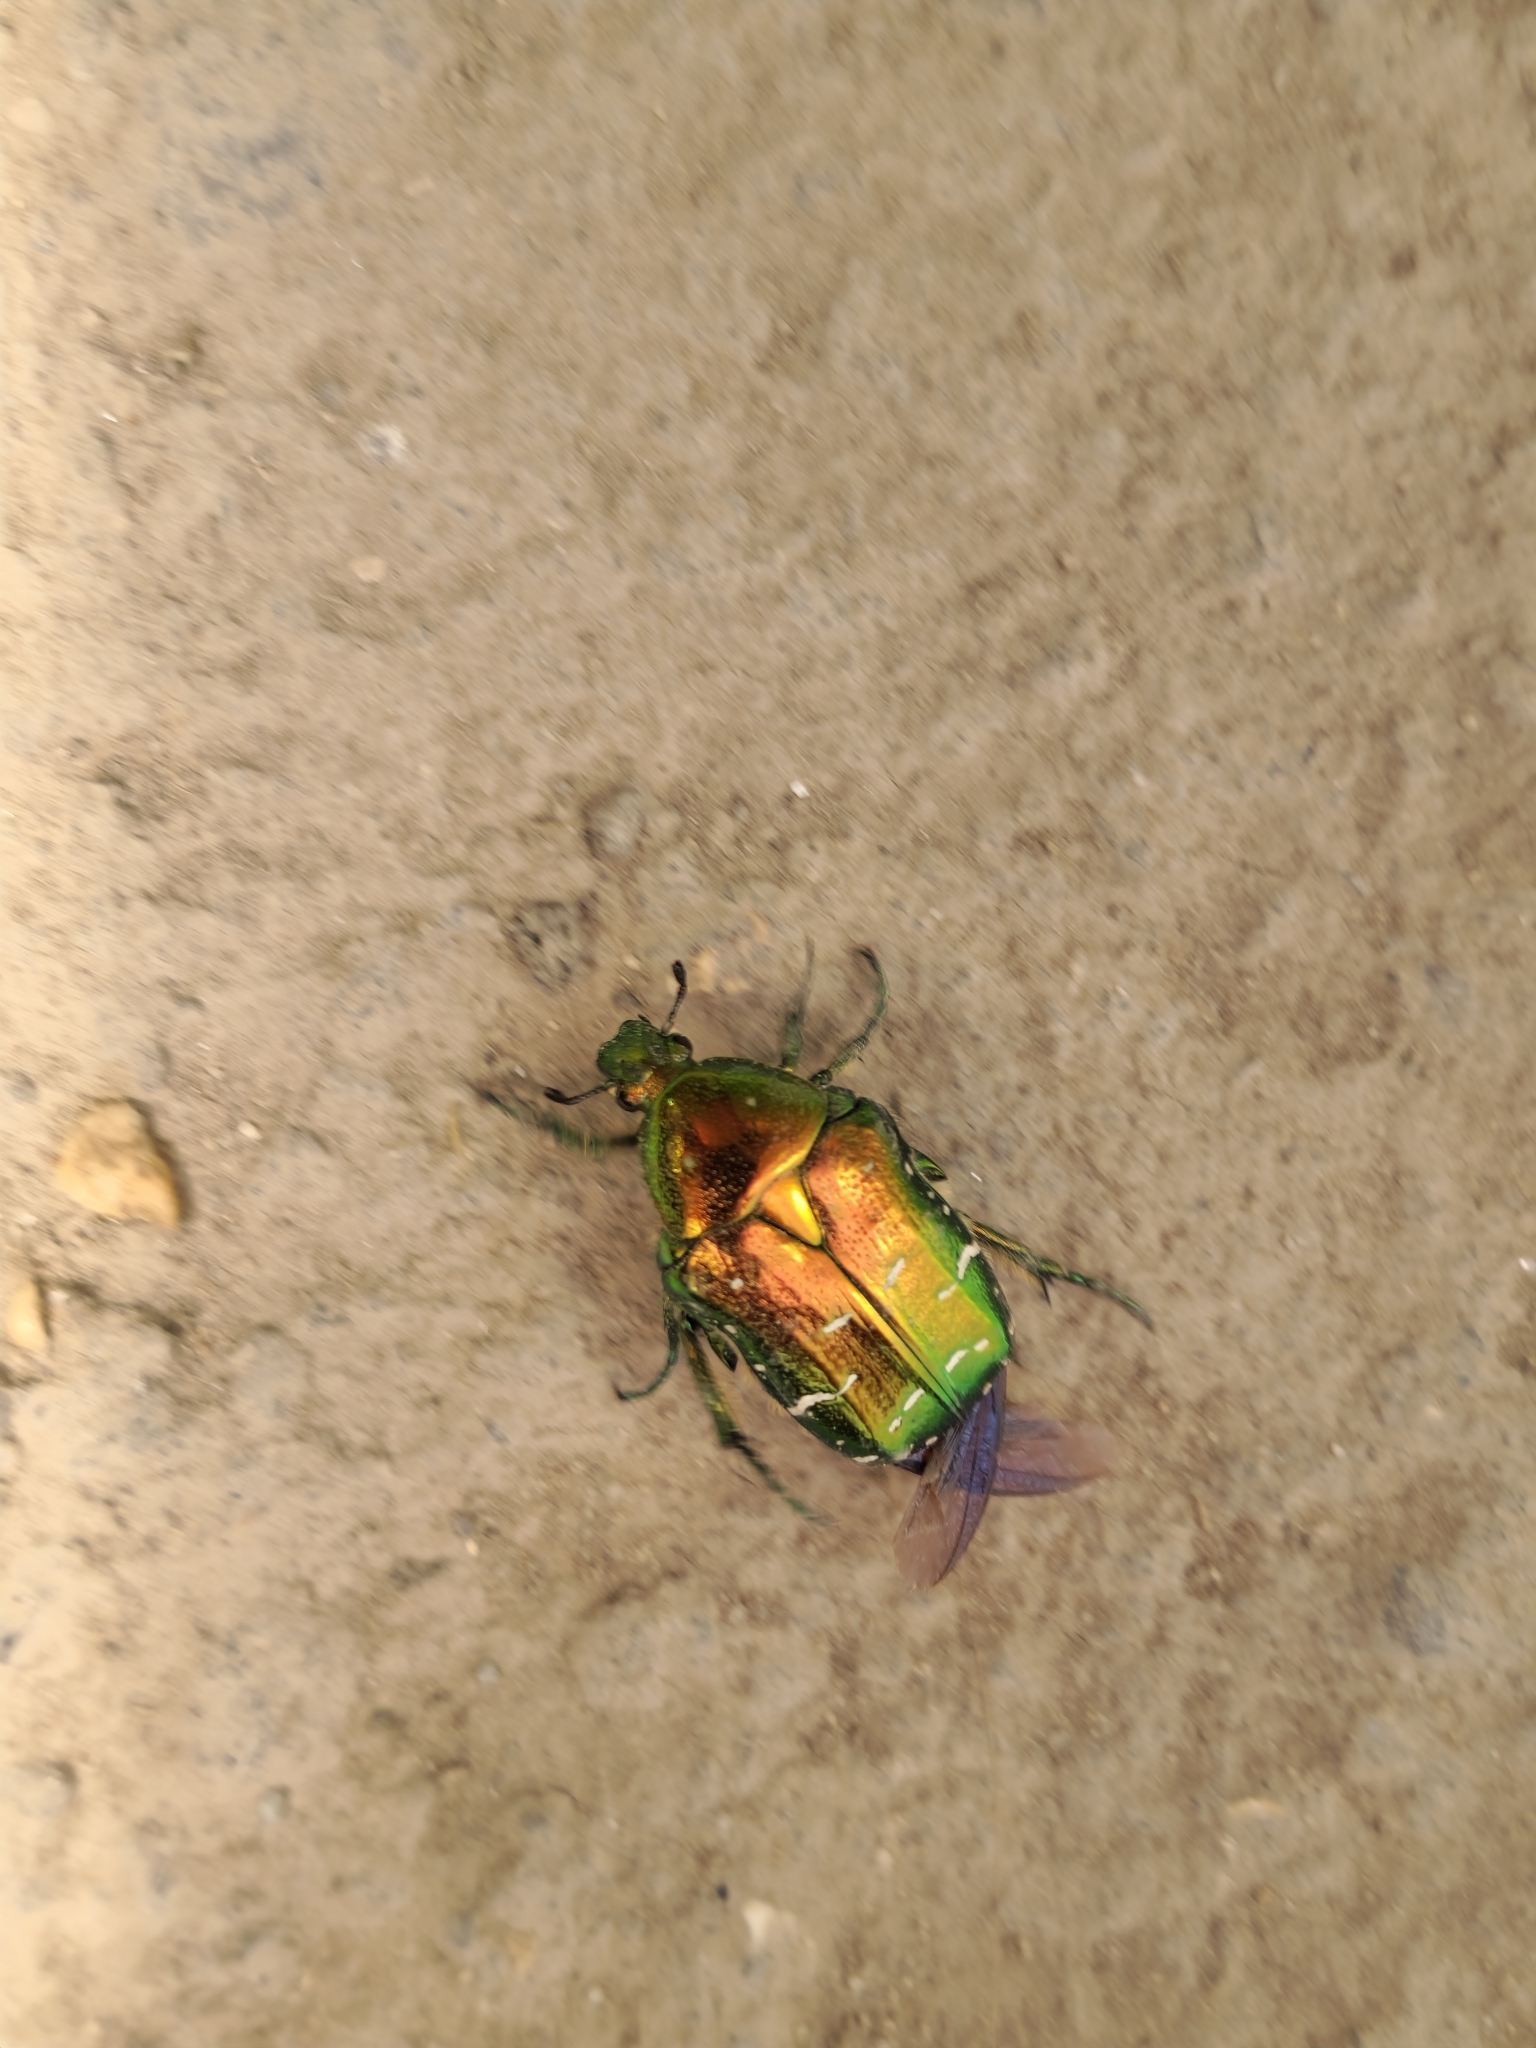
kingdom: Animalia
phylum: Arthropoda
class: Insecta
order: Coleoptera
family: Scarabaeidae
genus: Cetonia
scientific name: Cetonia aurata
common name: Rose chafer
